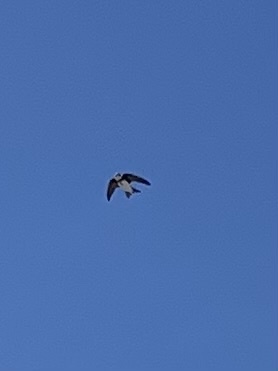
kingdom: Animalia
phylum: Chordata
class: Aves
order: Passeriformes
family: Hirundinidae
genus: Riparia
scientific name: Riparia riparia
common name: Sand martin
